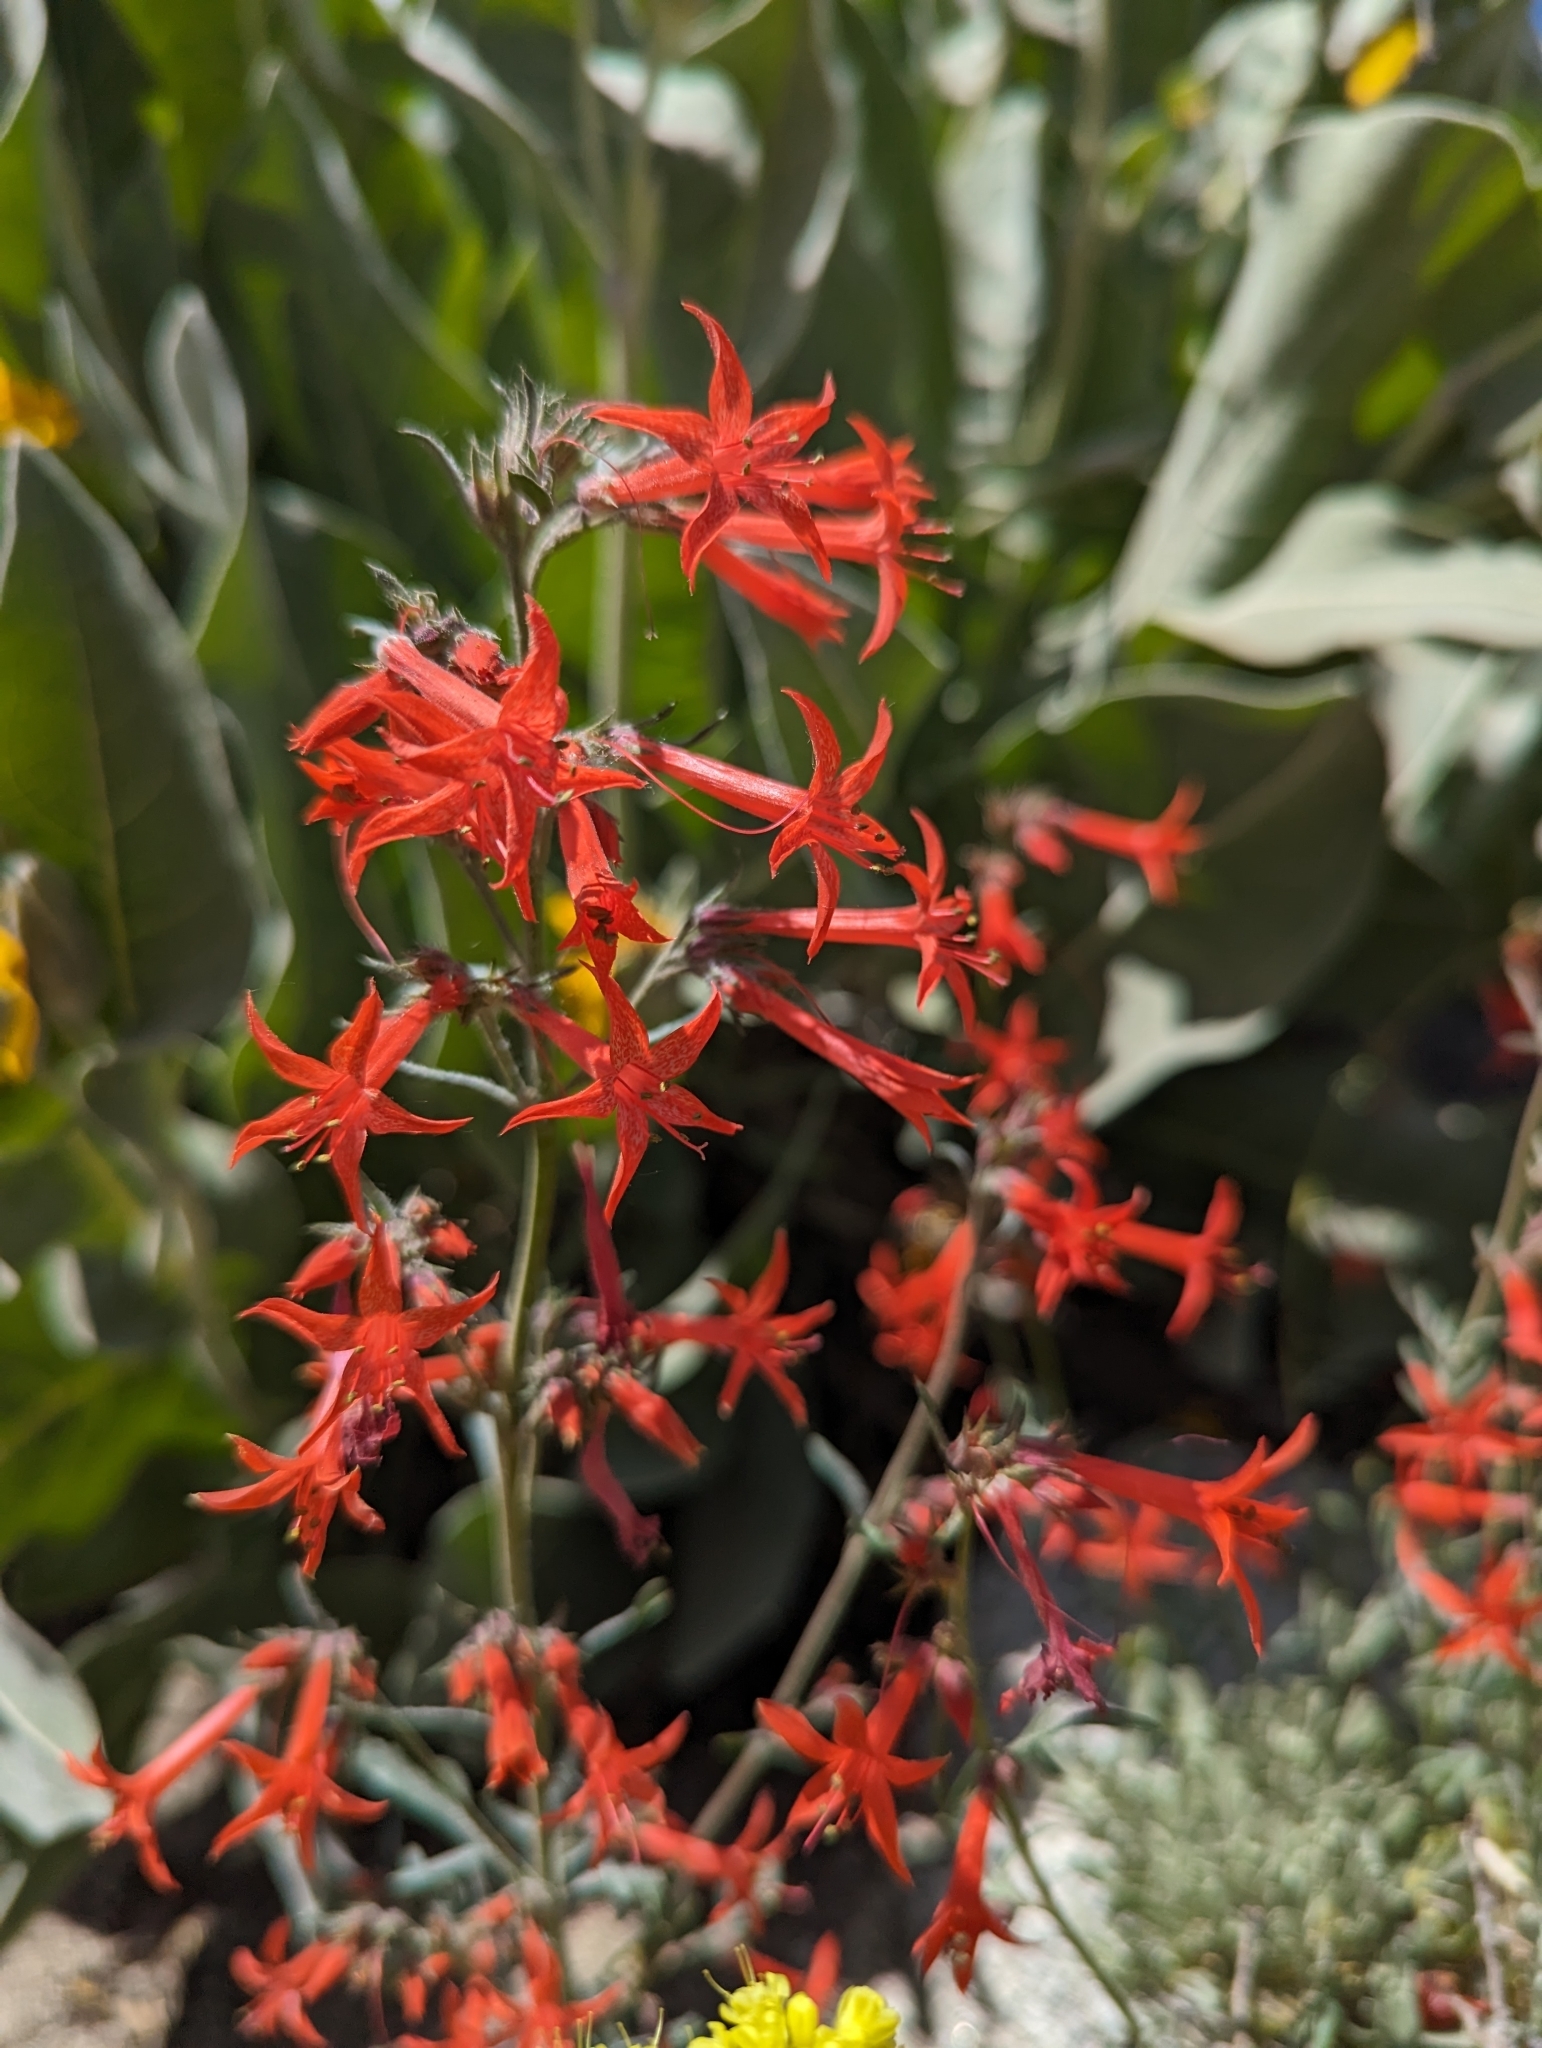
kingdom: Plantae
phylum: Tracheophyta
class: Magnoliopsida
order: Ericales
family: Polemoniaceae
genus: Ipomopsis
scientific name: Ipomopsis aggregata
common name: Scarlet gilia
